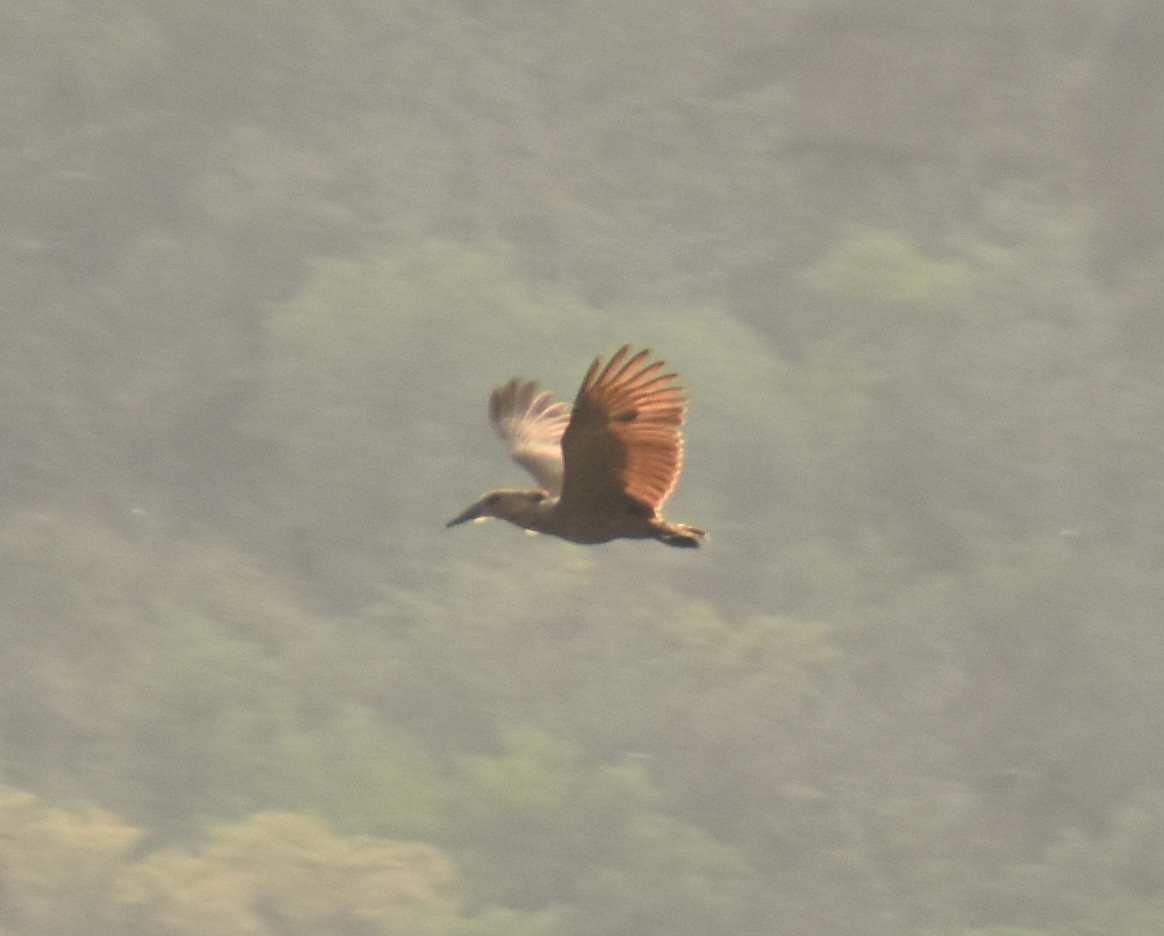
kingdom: Animalia
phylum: Chordata
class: Aves
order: Pelecaniformes
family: Scopidae
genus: Scopus
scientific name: Scopus umbretta
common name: Hamerkop
